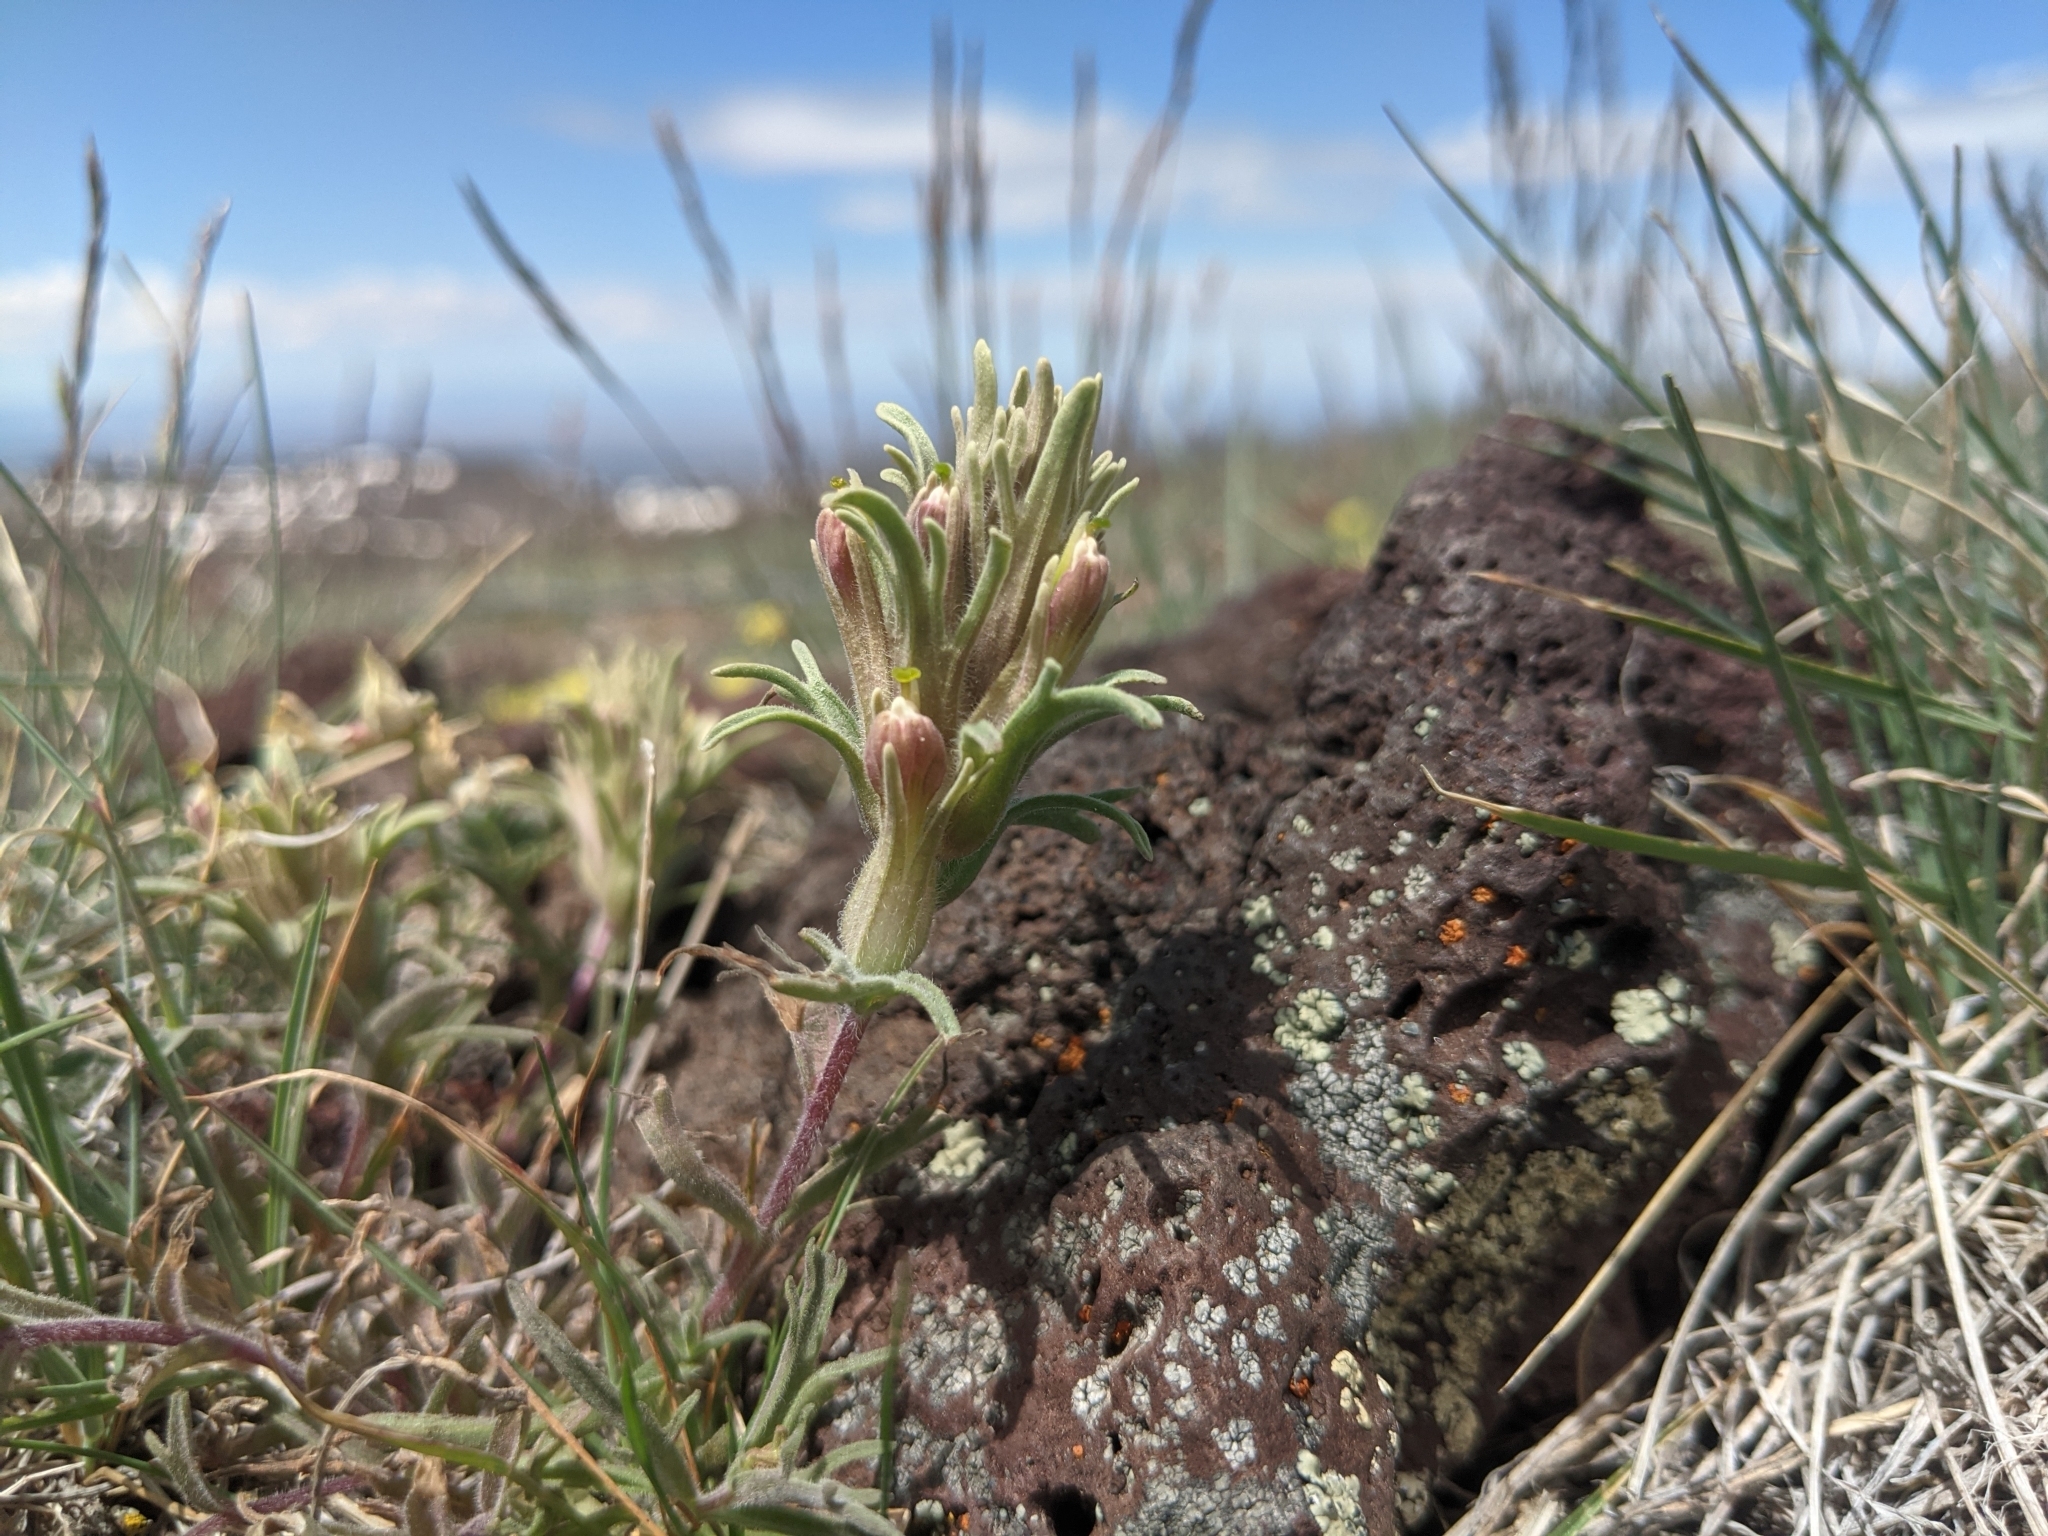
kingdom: Plantae
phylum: Tracheophyta
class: Magnoliopsida
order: Lamiales
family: Orobanchaceae
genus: Castilleja
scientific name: Castilleja pilosa
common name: Hairy paintbrush
